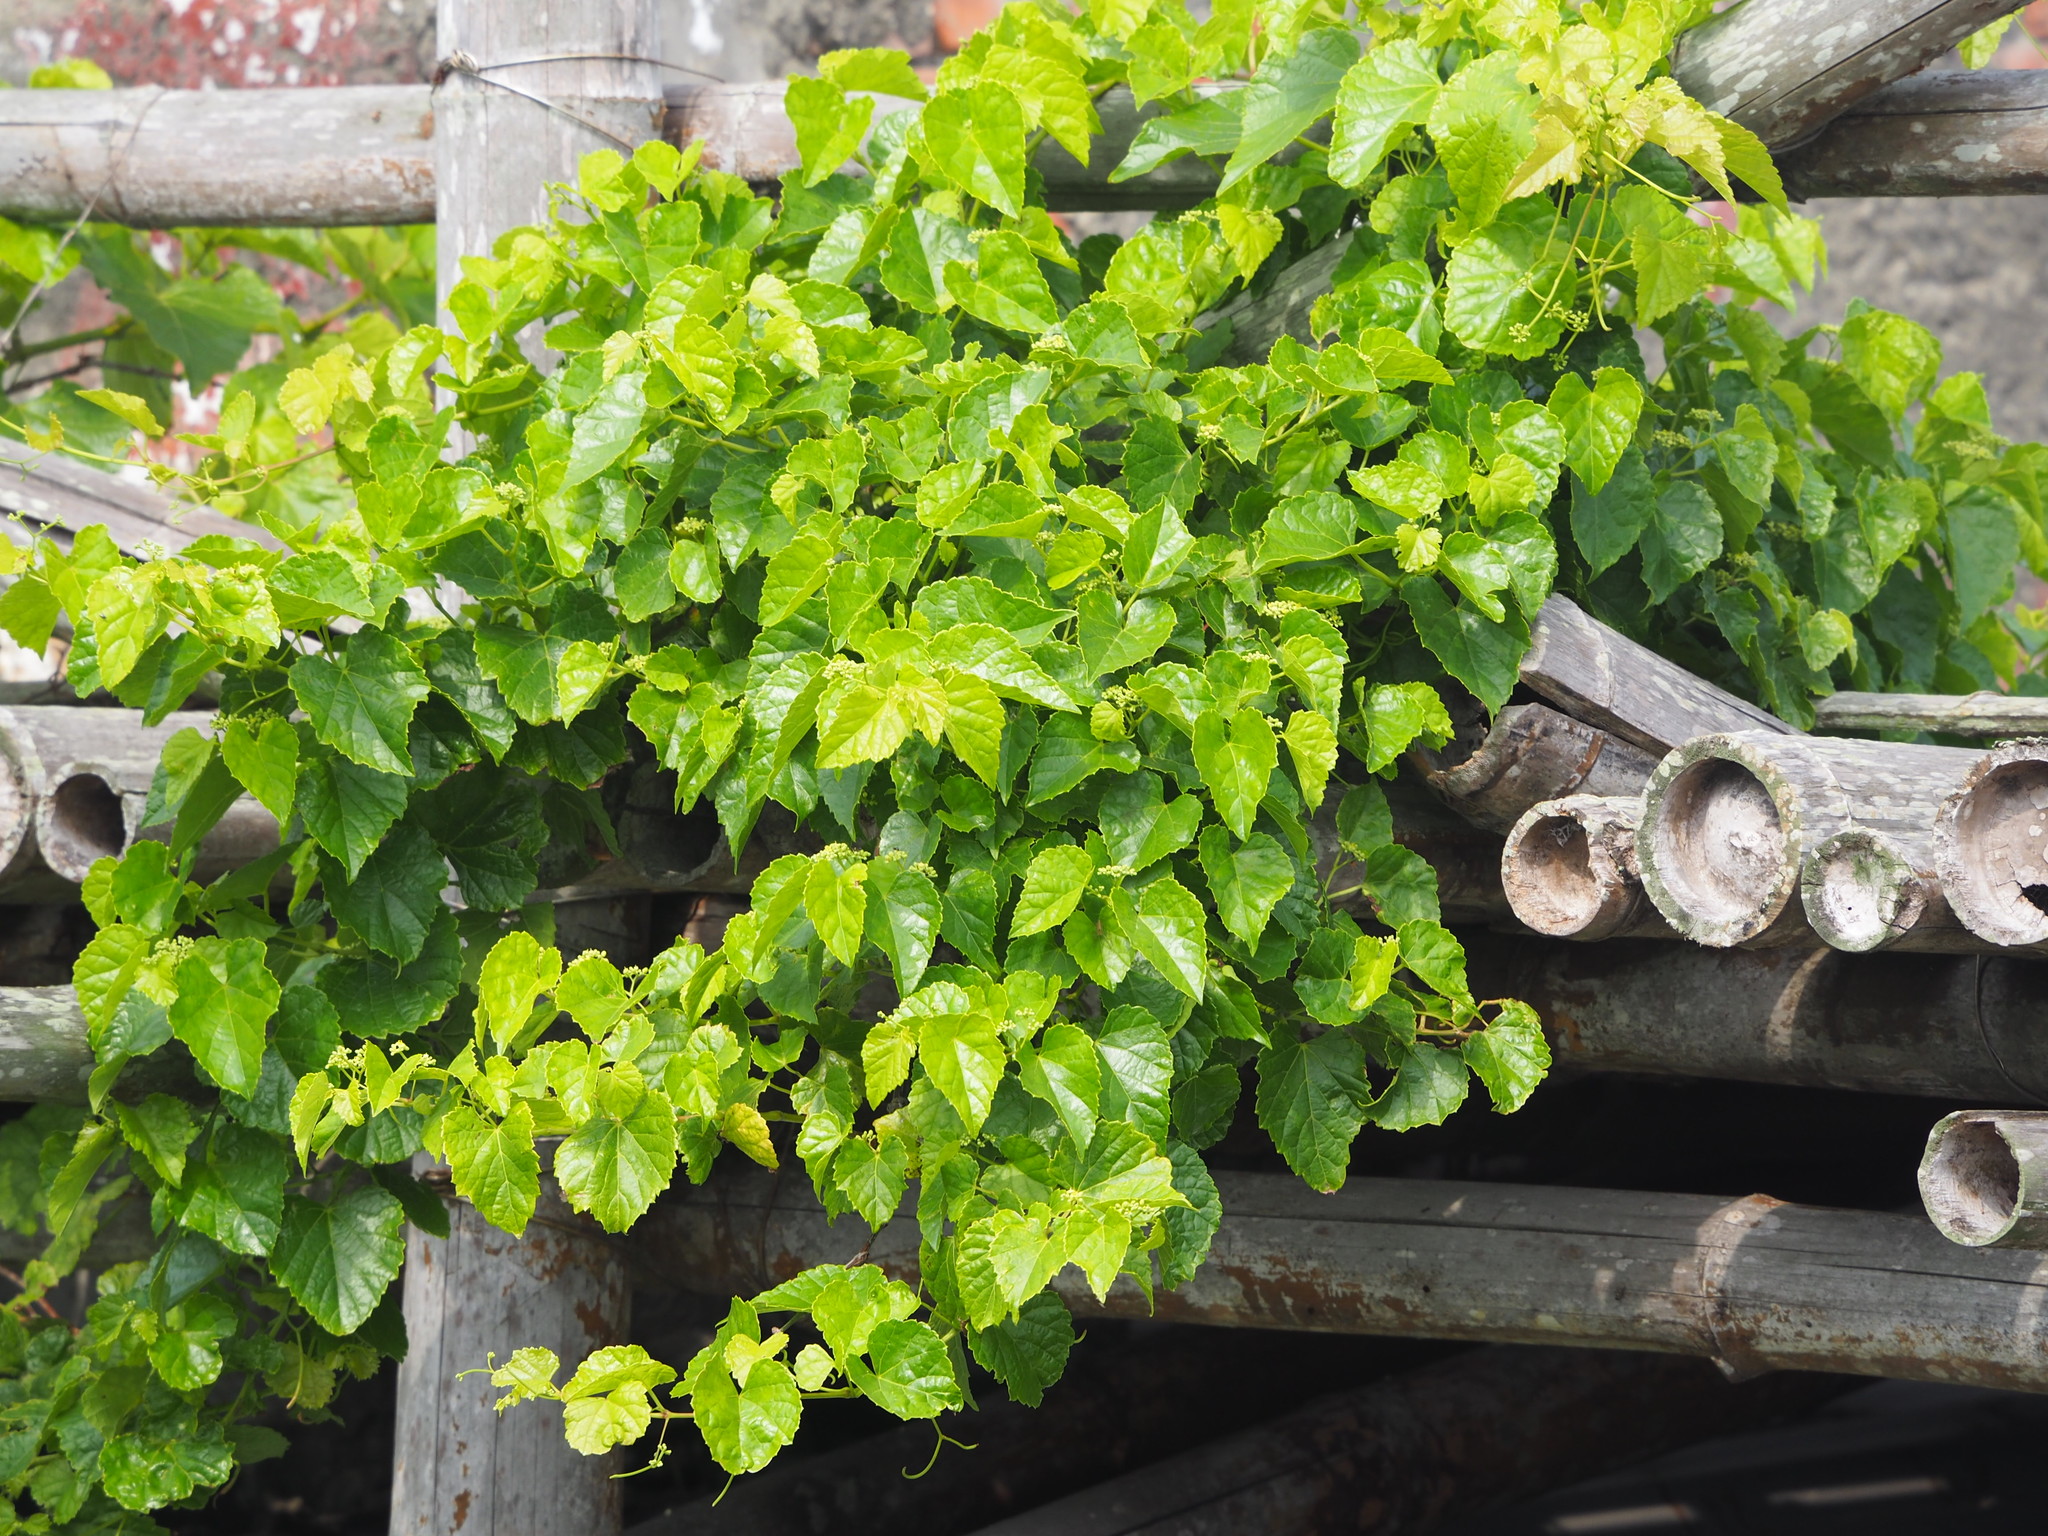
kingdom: Plantae
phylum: Tracheophyta
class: Magnoliopsida
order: Vitales
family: Vitaceae
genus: Ampelopsis
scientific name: Ampelopsis glandulosa
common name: Amur peppervine
